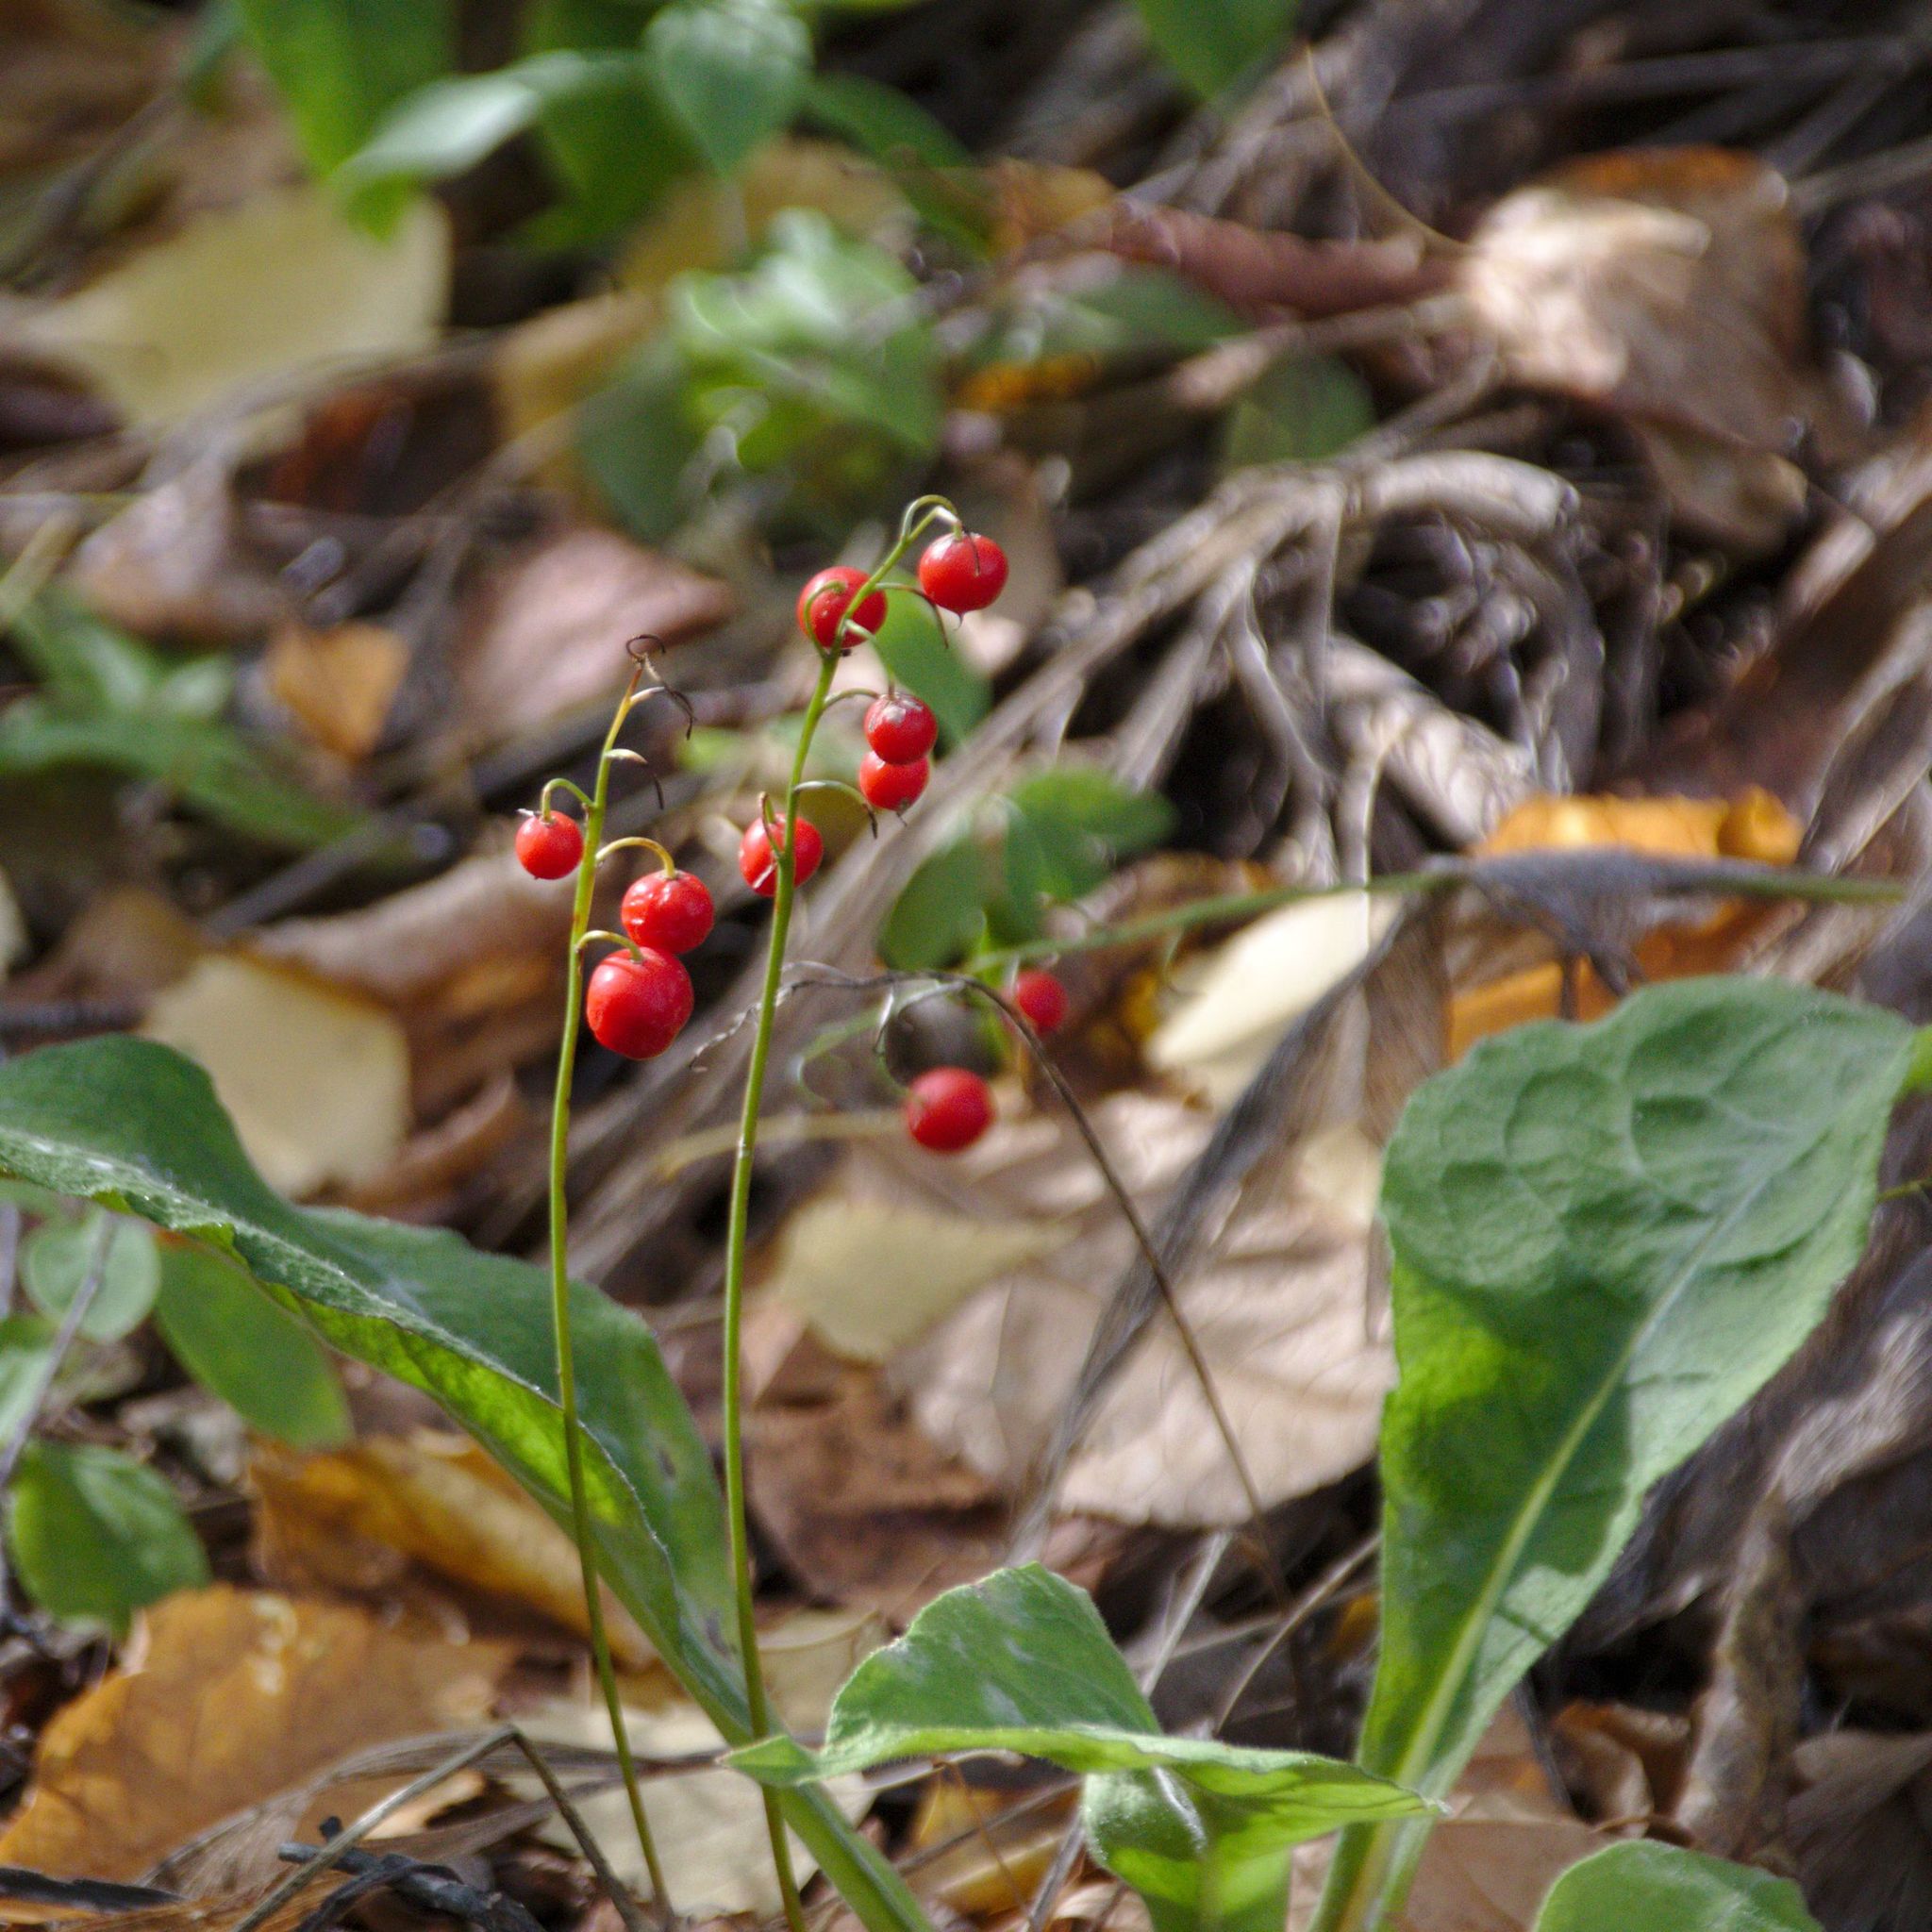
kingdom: Plantae
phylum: Tracheophyta
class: Liliopsida
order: Asparagales
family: Asparagaceae
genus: Convallaria
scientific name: Convallaria majalis
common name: Lily-of-the-valley
